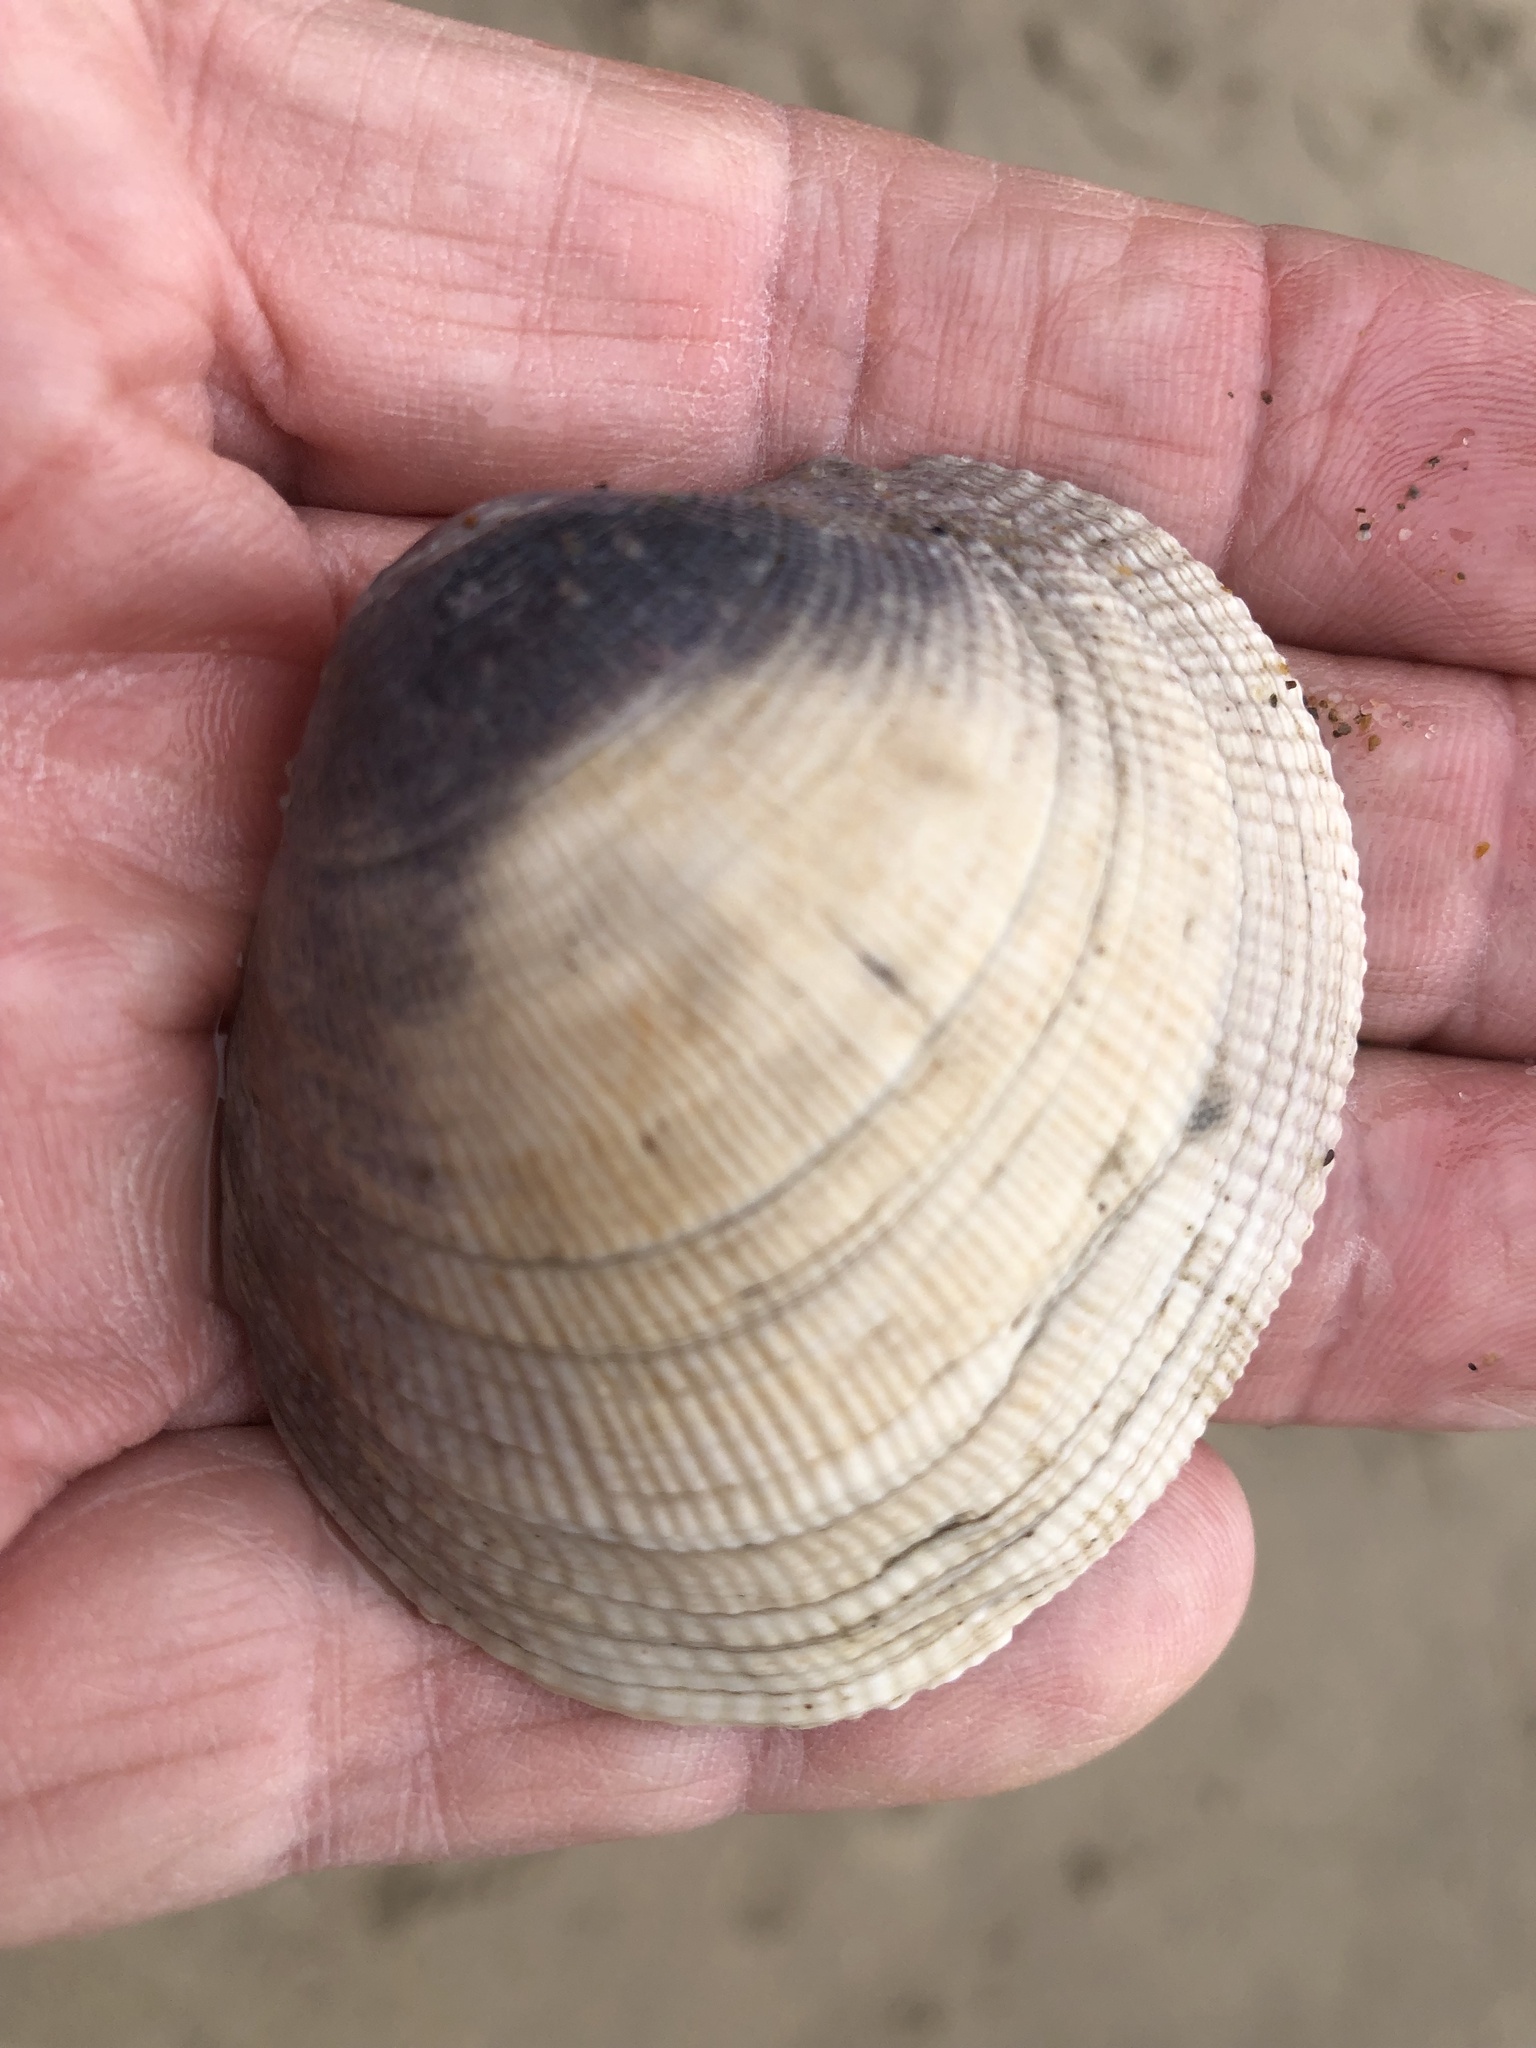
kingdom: Animalia
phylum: Mollusca
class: Bivalvia
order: Venerida
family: Veneridae
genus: Leukoma
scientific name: Leukoma staminea
